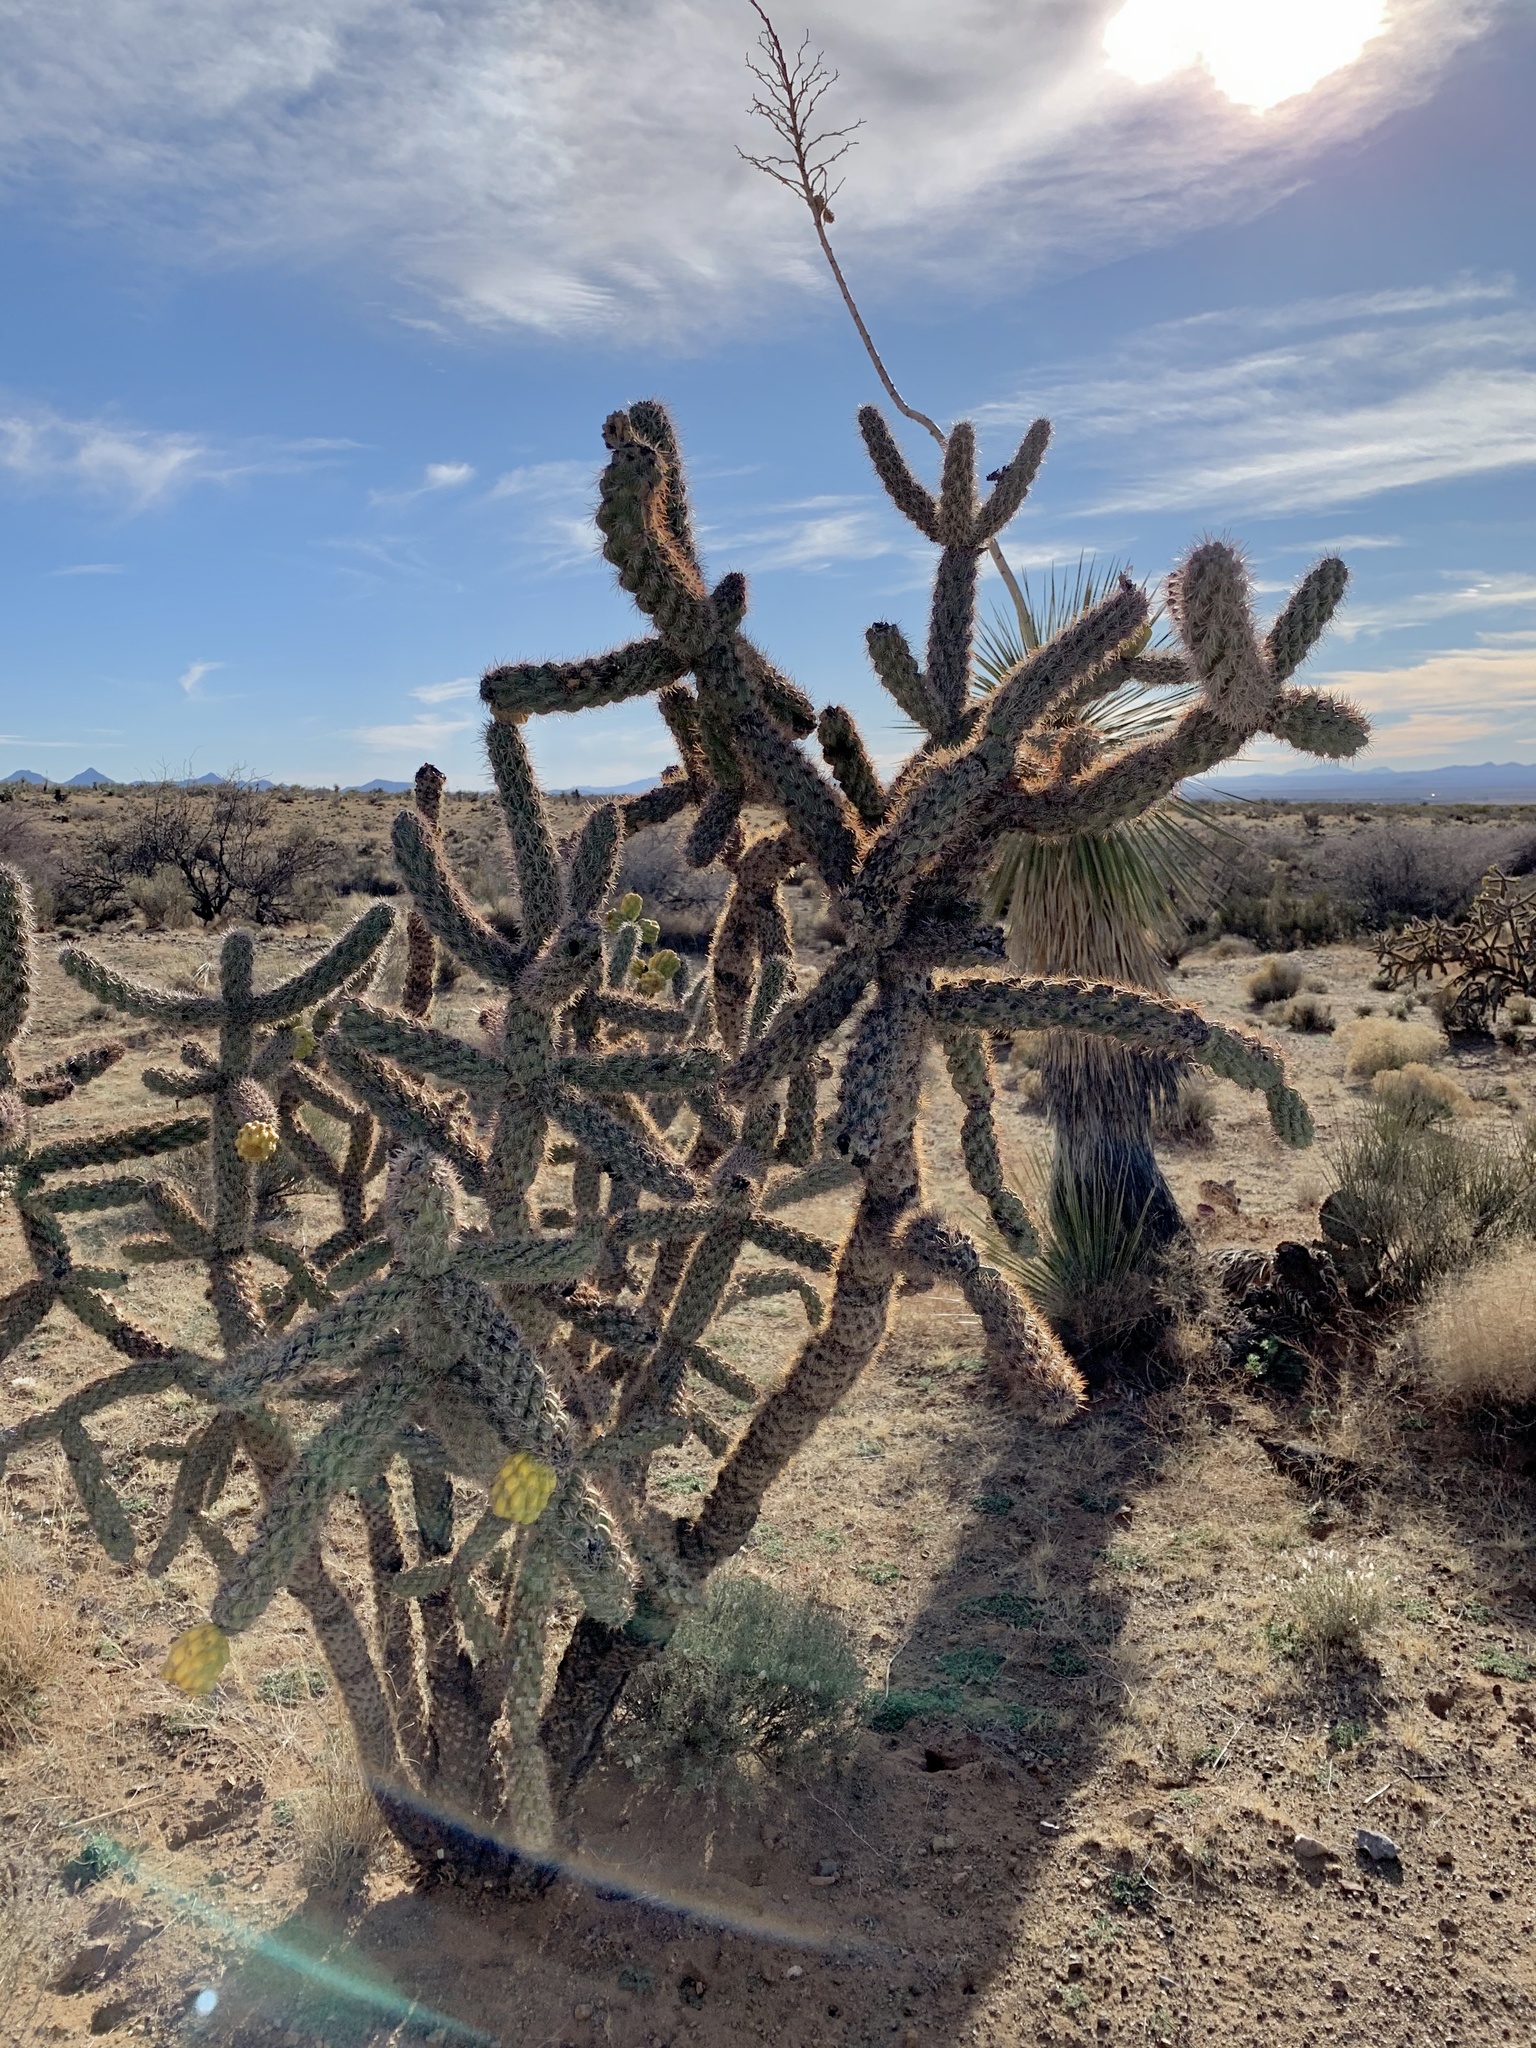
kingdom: Plantae
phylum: Tracheophyta
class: Magnoliopsida
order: Caryophyllales
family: Cactaceae
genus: Cylindropuntia
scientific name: Cylindropuntia imbricata
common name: Candelabrum cactus
